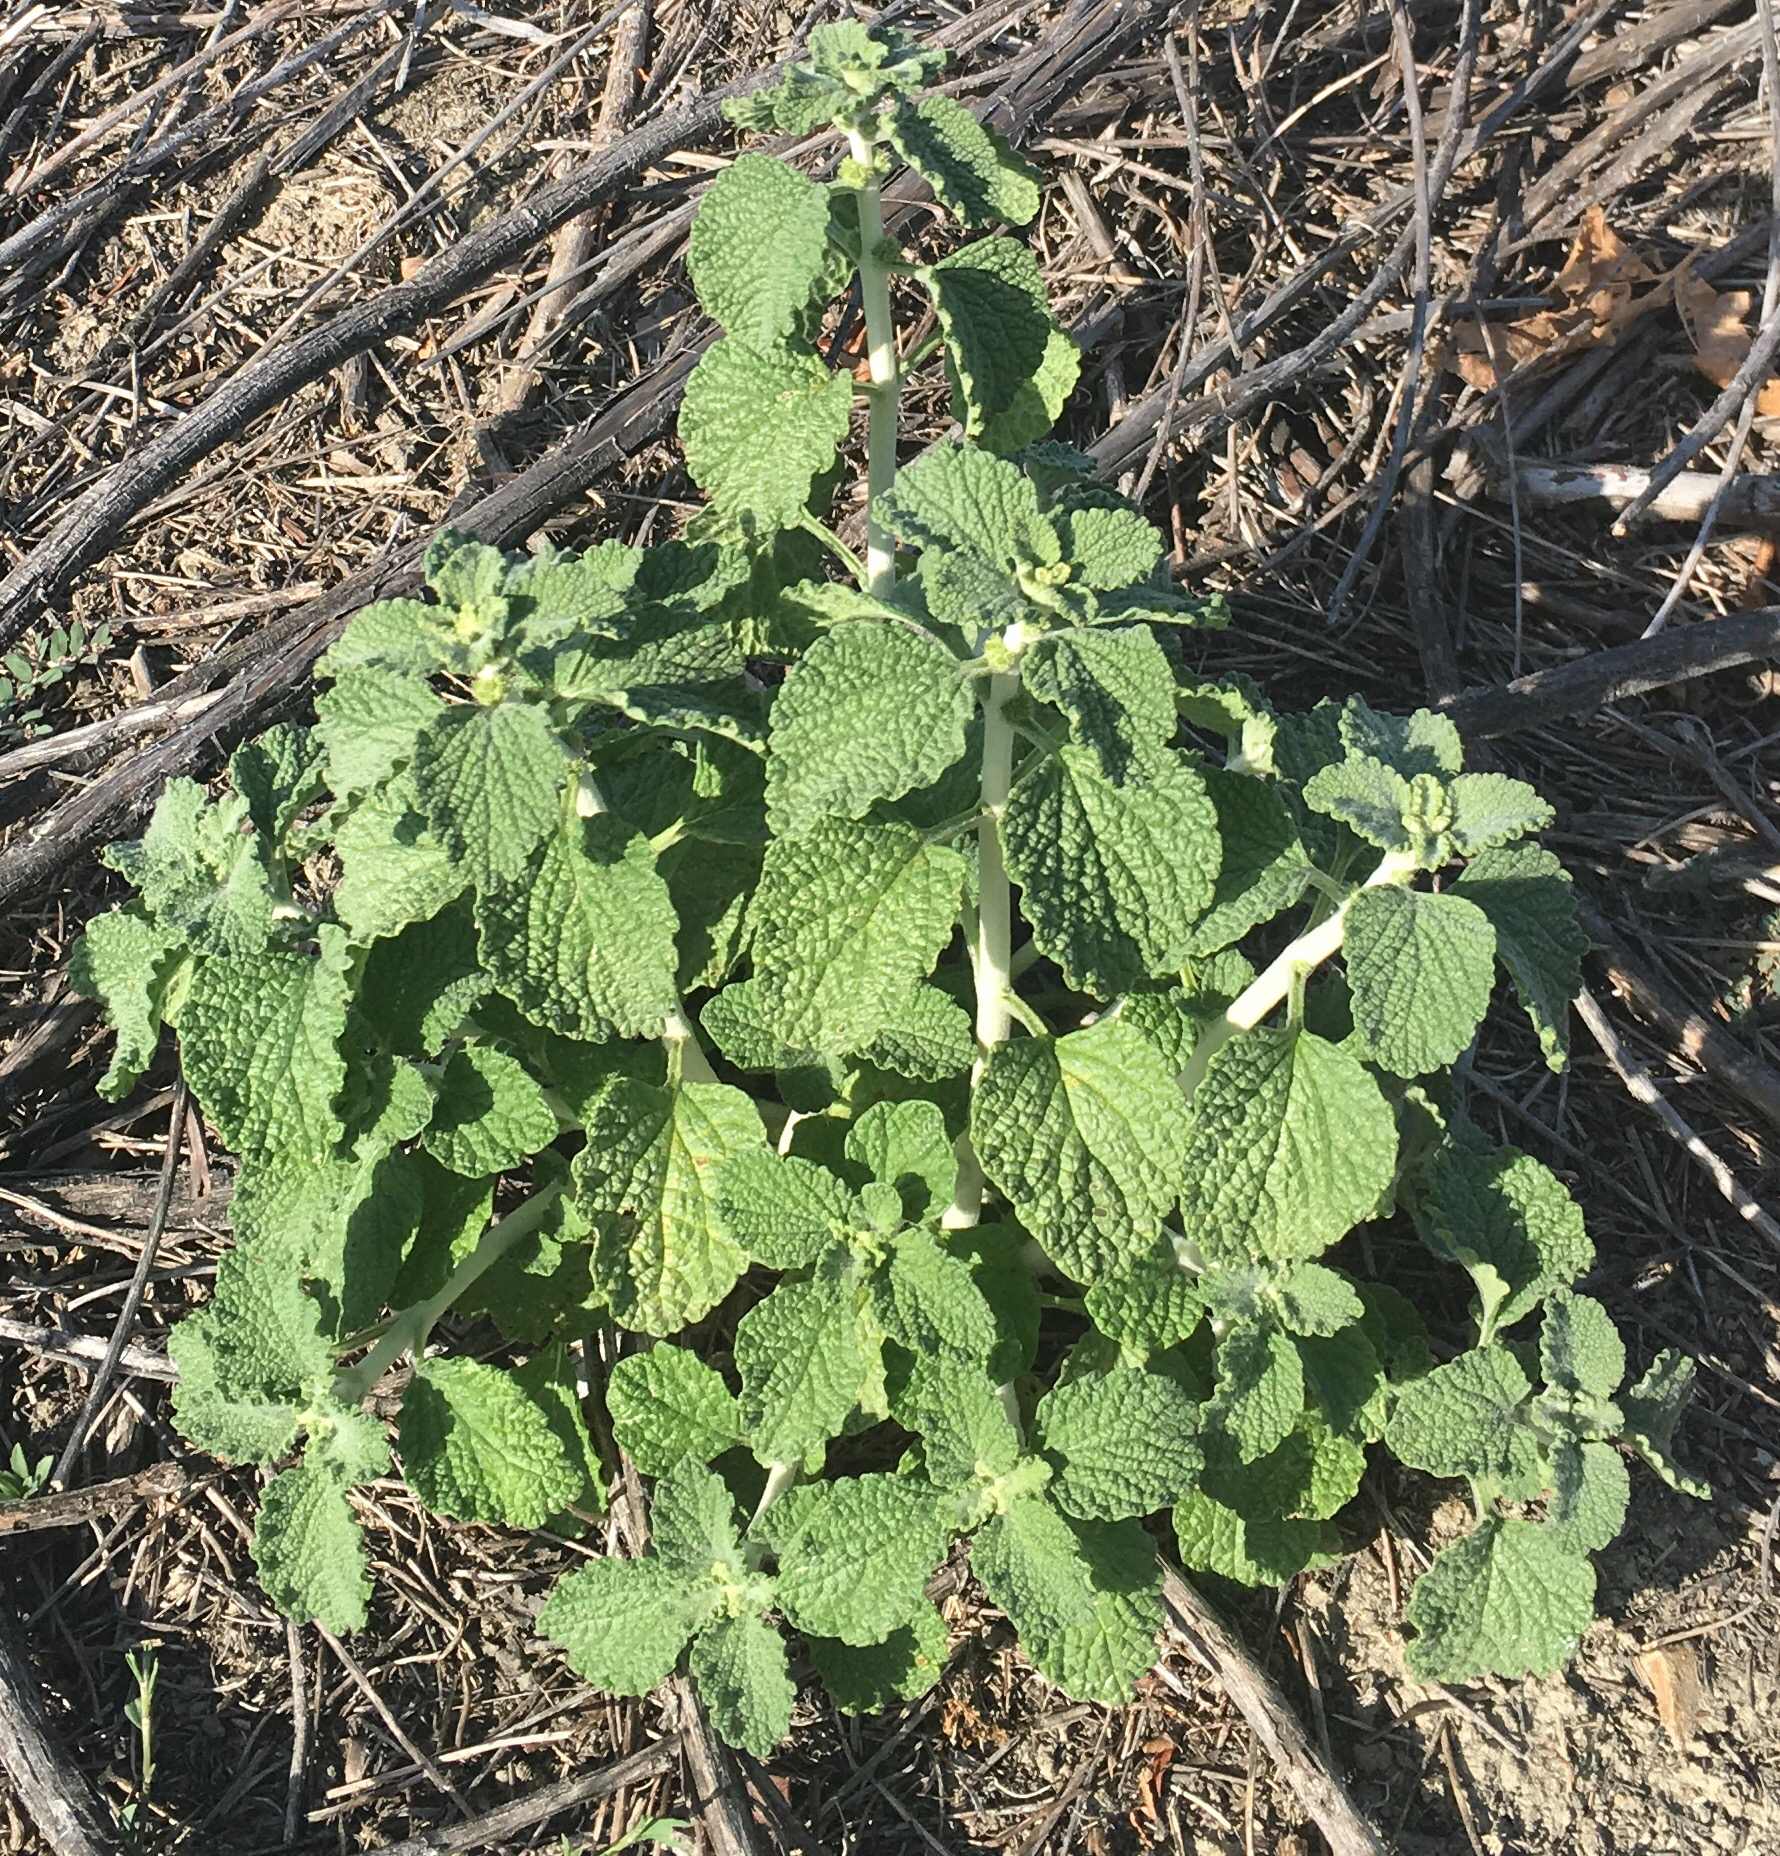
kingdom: Plantae
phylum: Tracheophyta
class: Magnoliopsida
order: Lamiales
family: Lamiaceae
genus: Marrubium
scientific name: Marrubium vulgare
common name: Horehound
